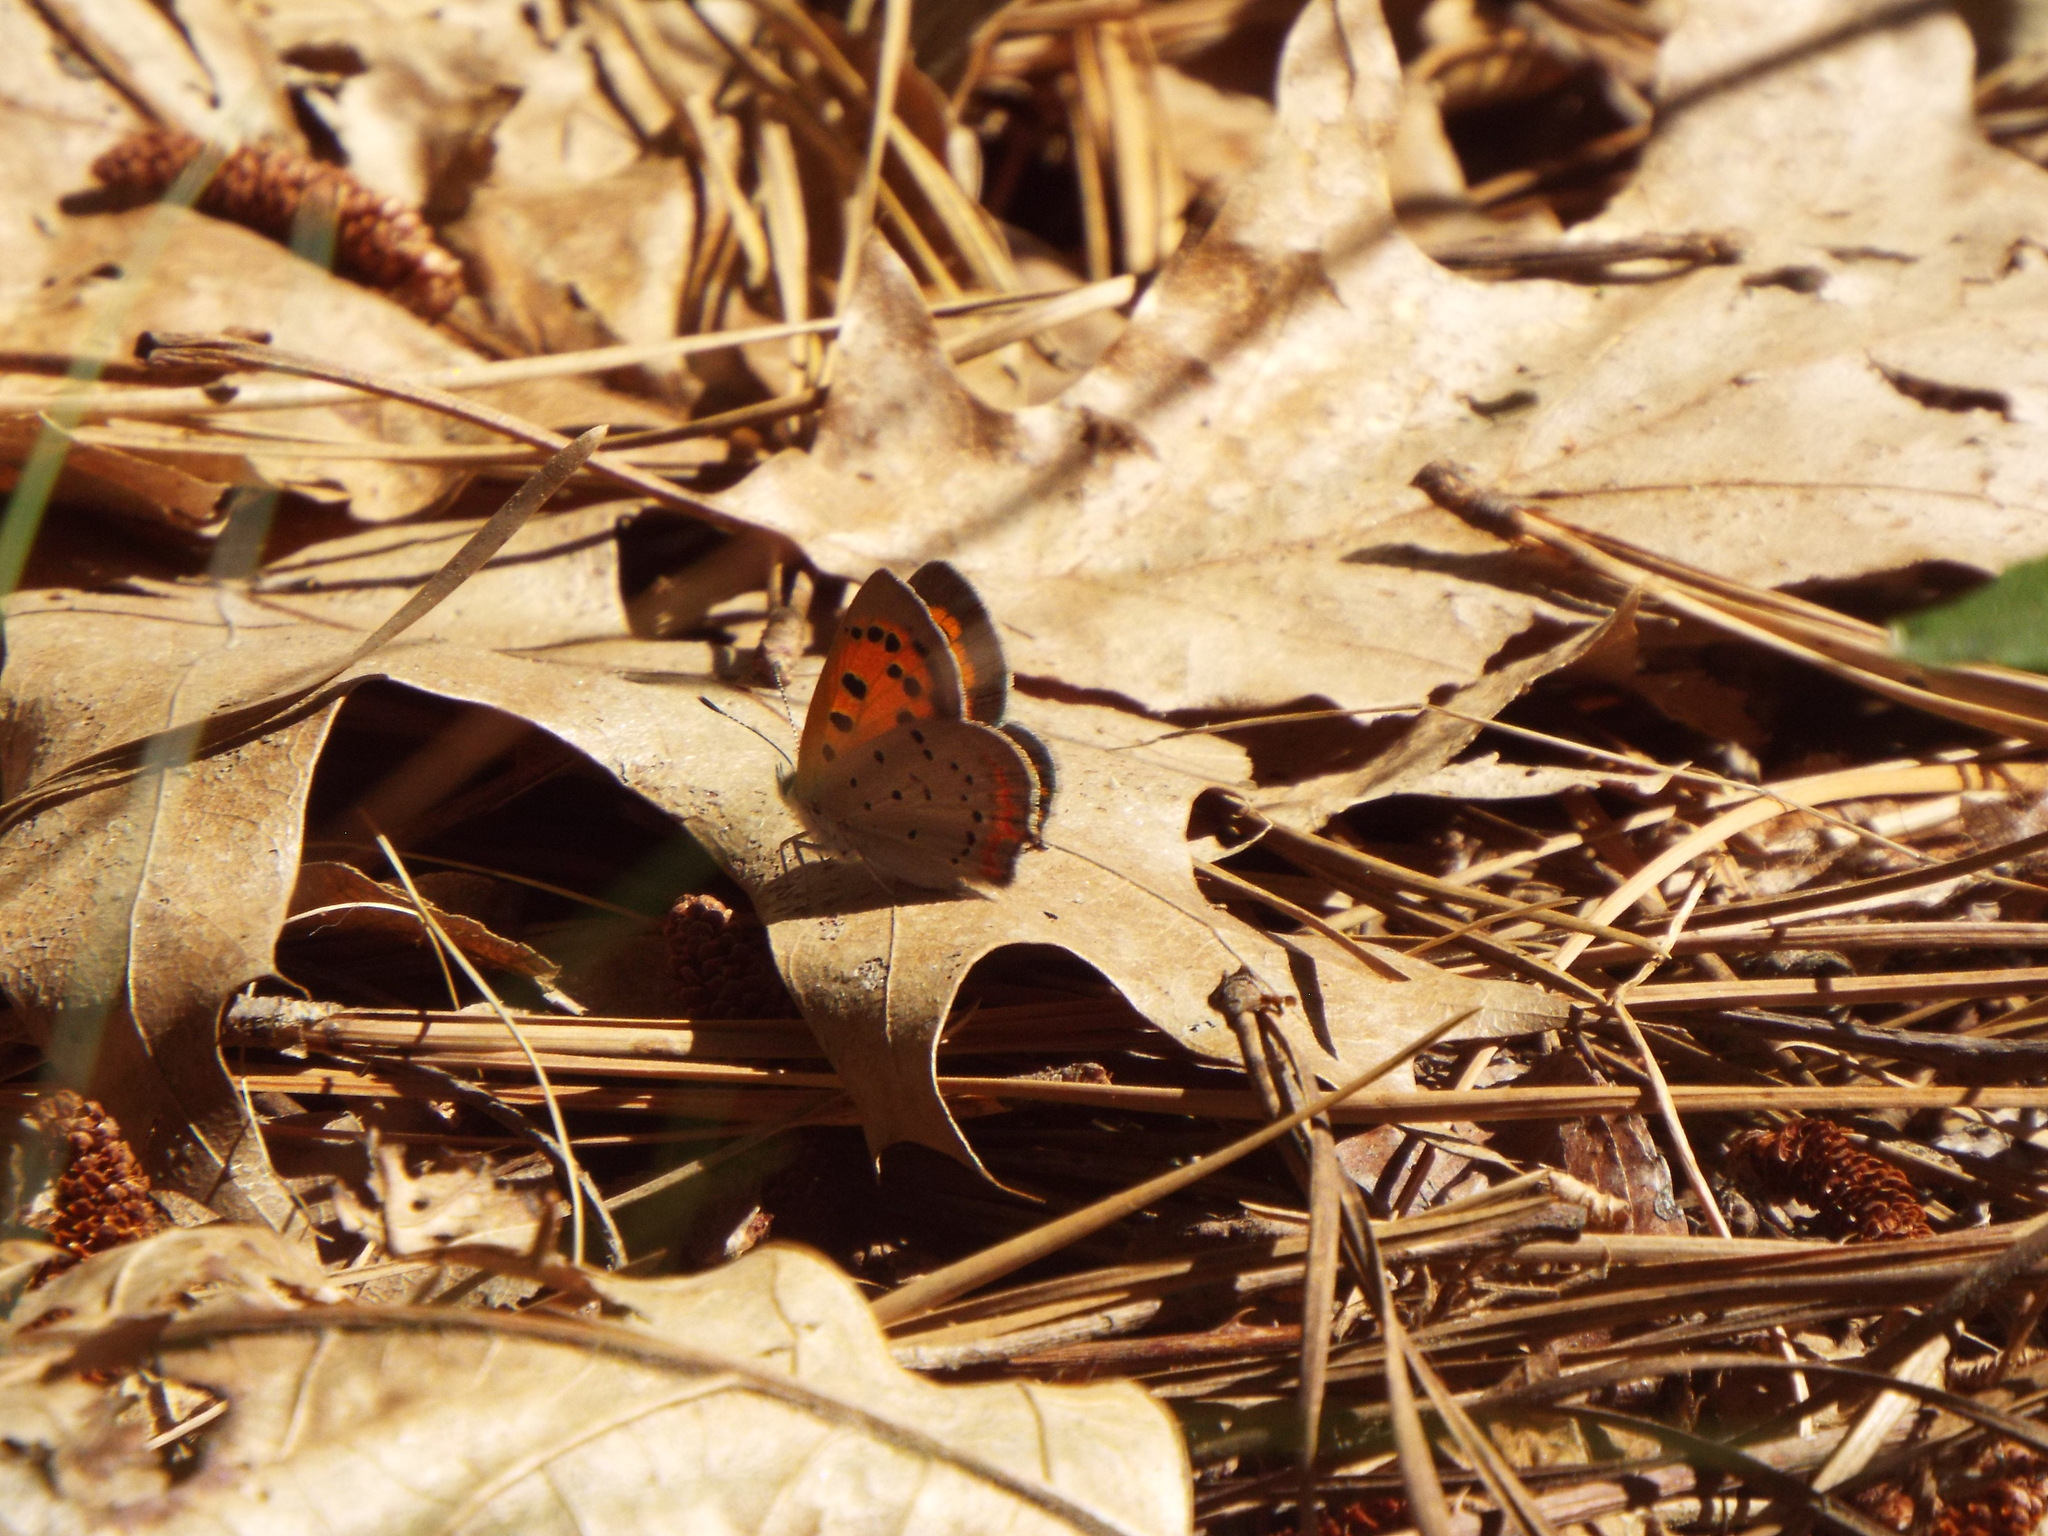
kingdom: Animalia
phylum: Arthropoda
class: Insecta
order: Lepidoptera
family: Lycaenidae
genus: Lycaena
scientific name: Lycaena hypophlaeas
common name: American copper
